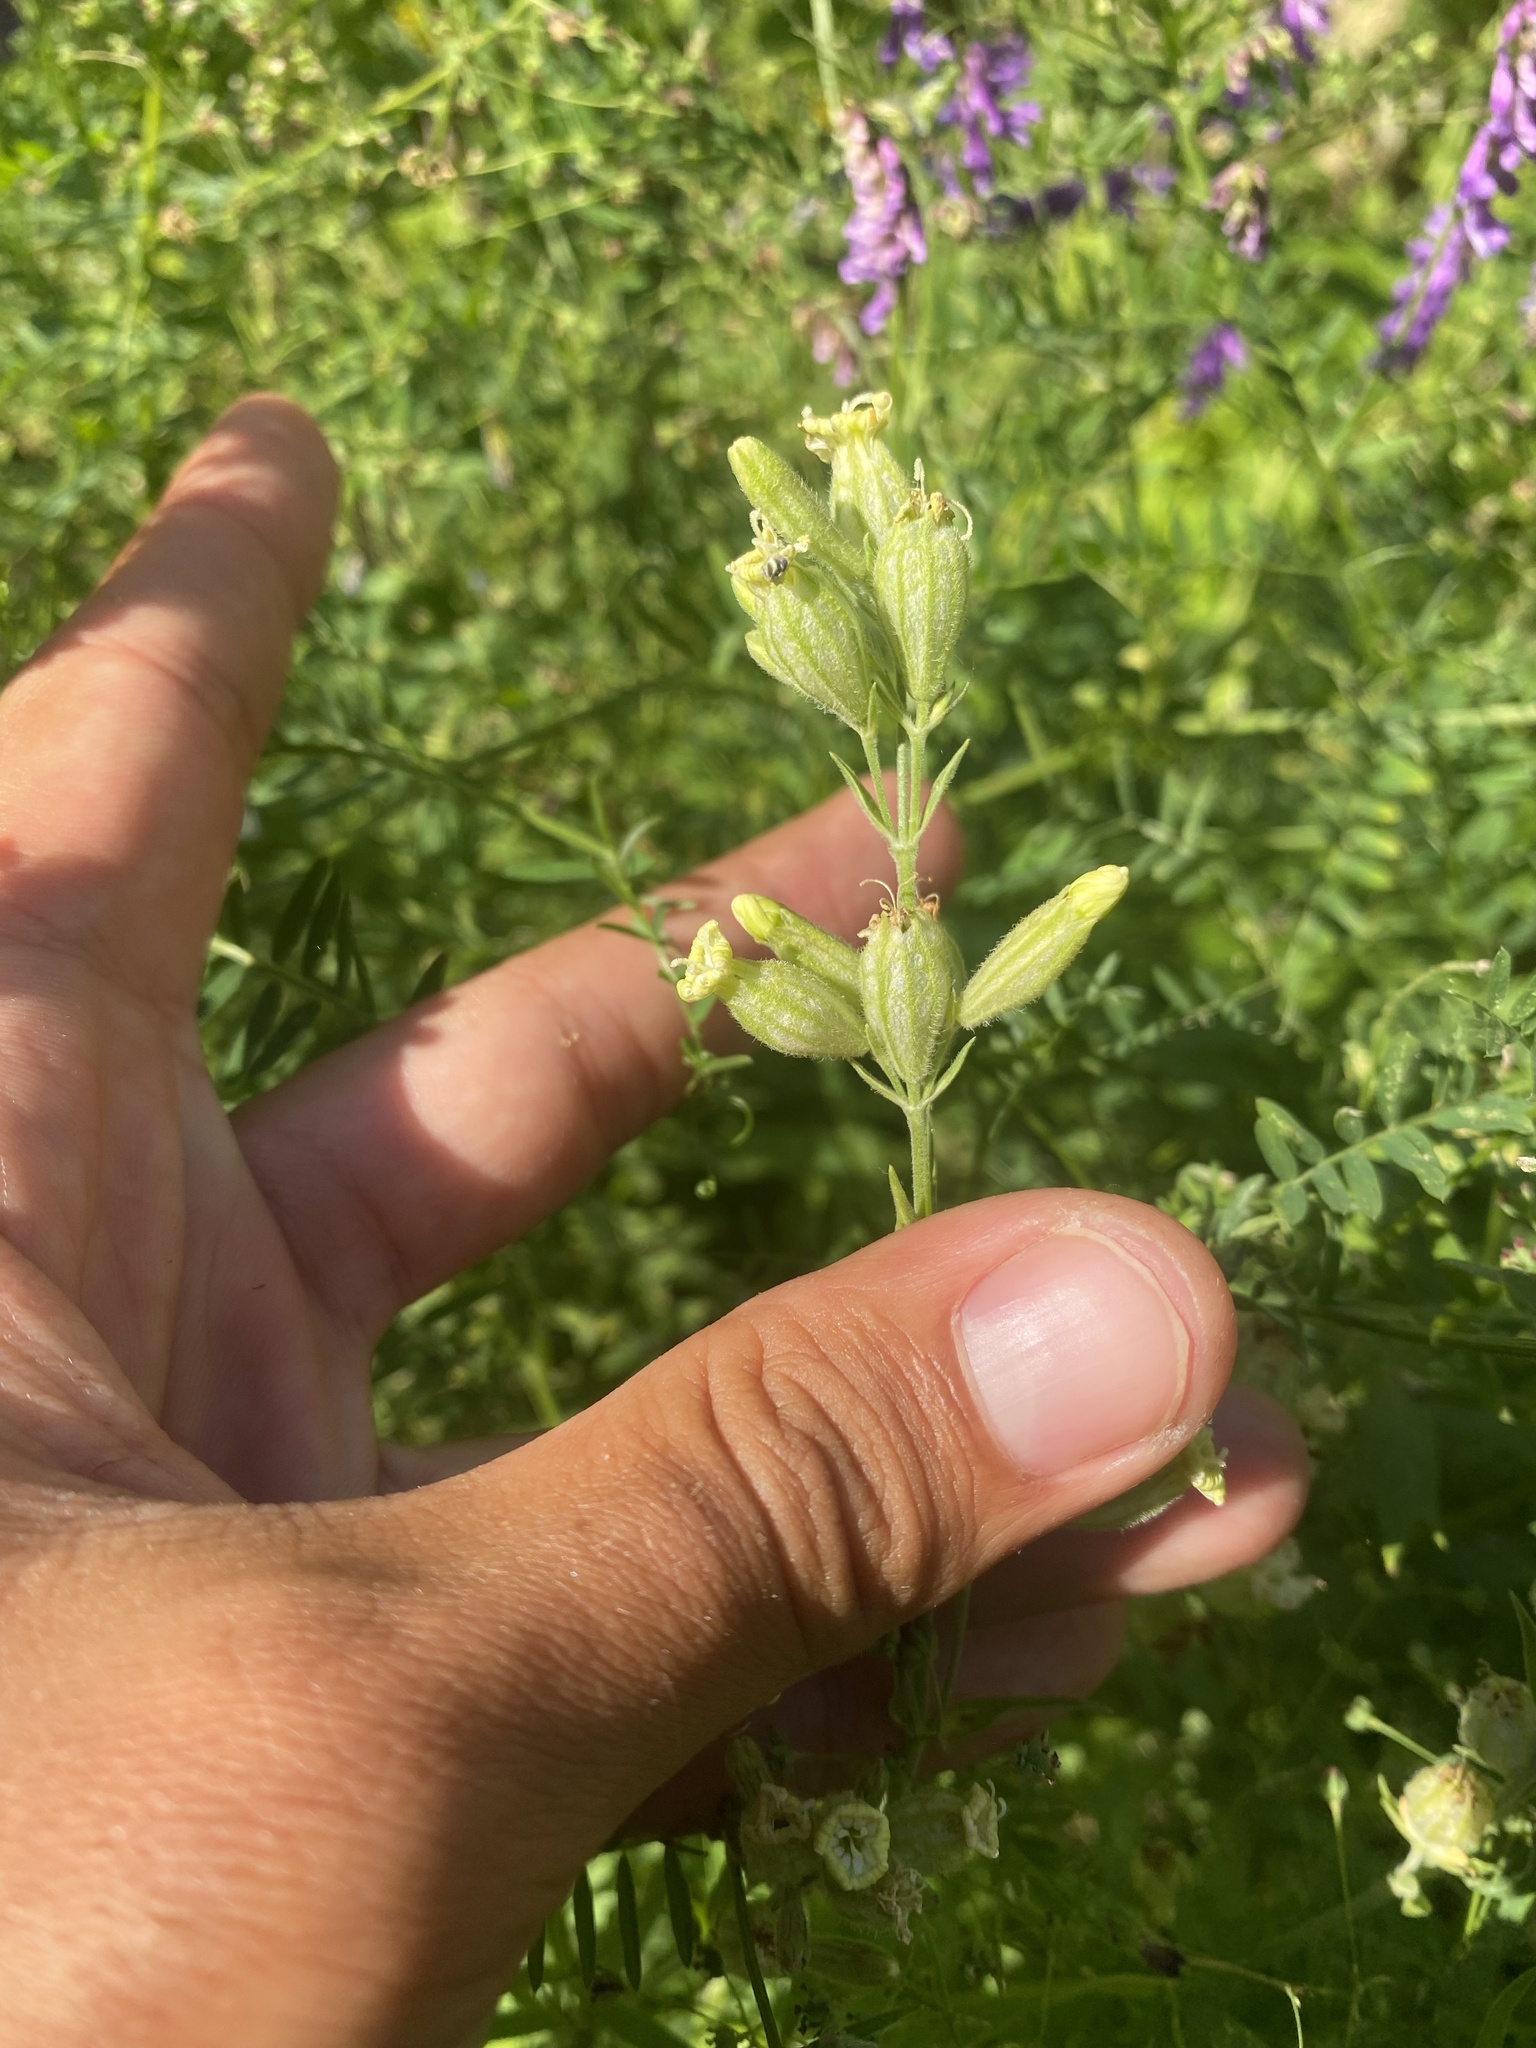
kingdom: Plantae
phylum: Tracheophyta
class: Magnoliopsida
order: Caryophyllales
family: Caryophyllaceae
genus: Silene
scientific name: Silene amoena
